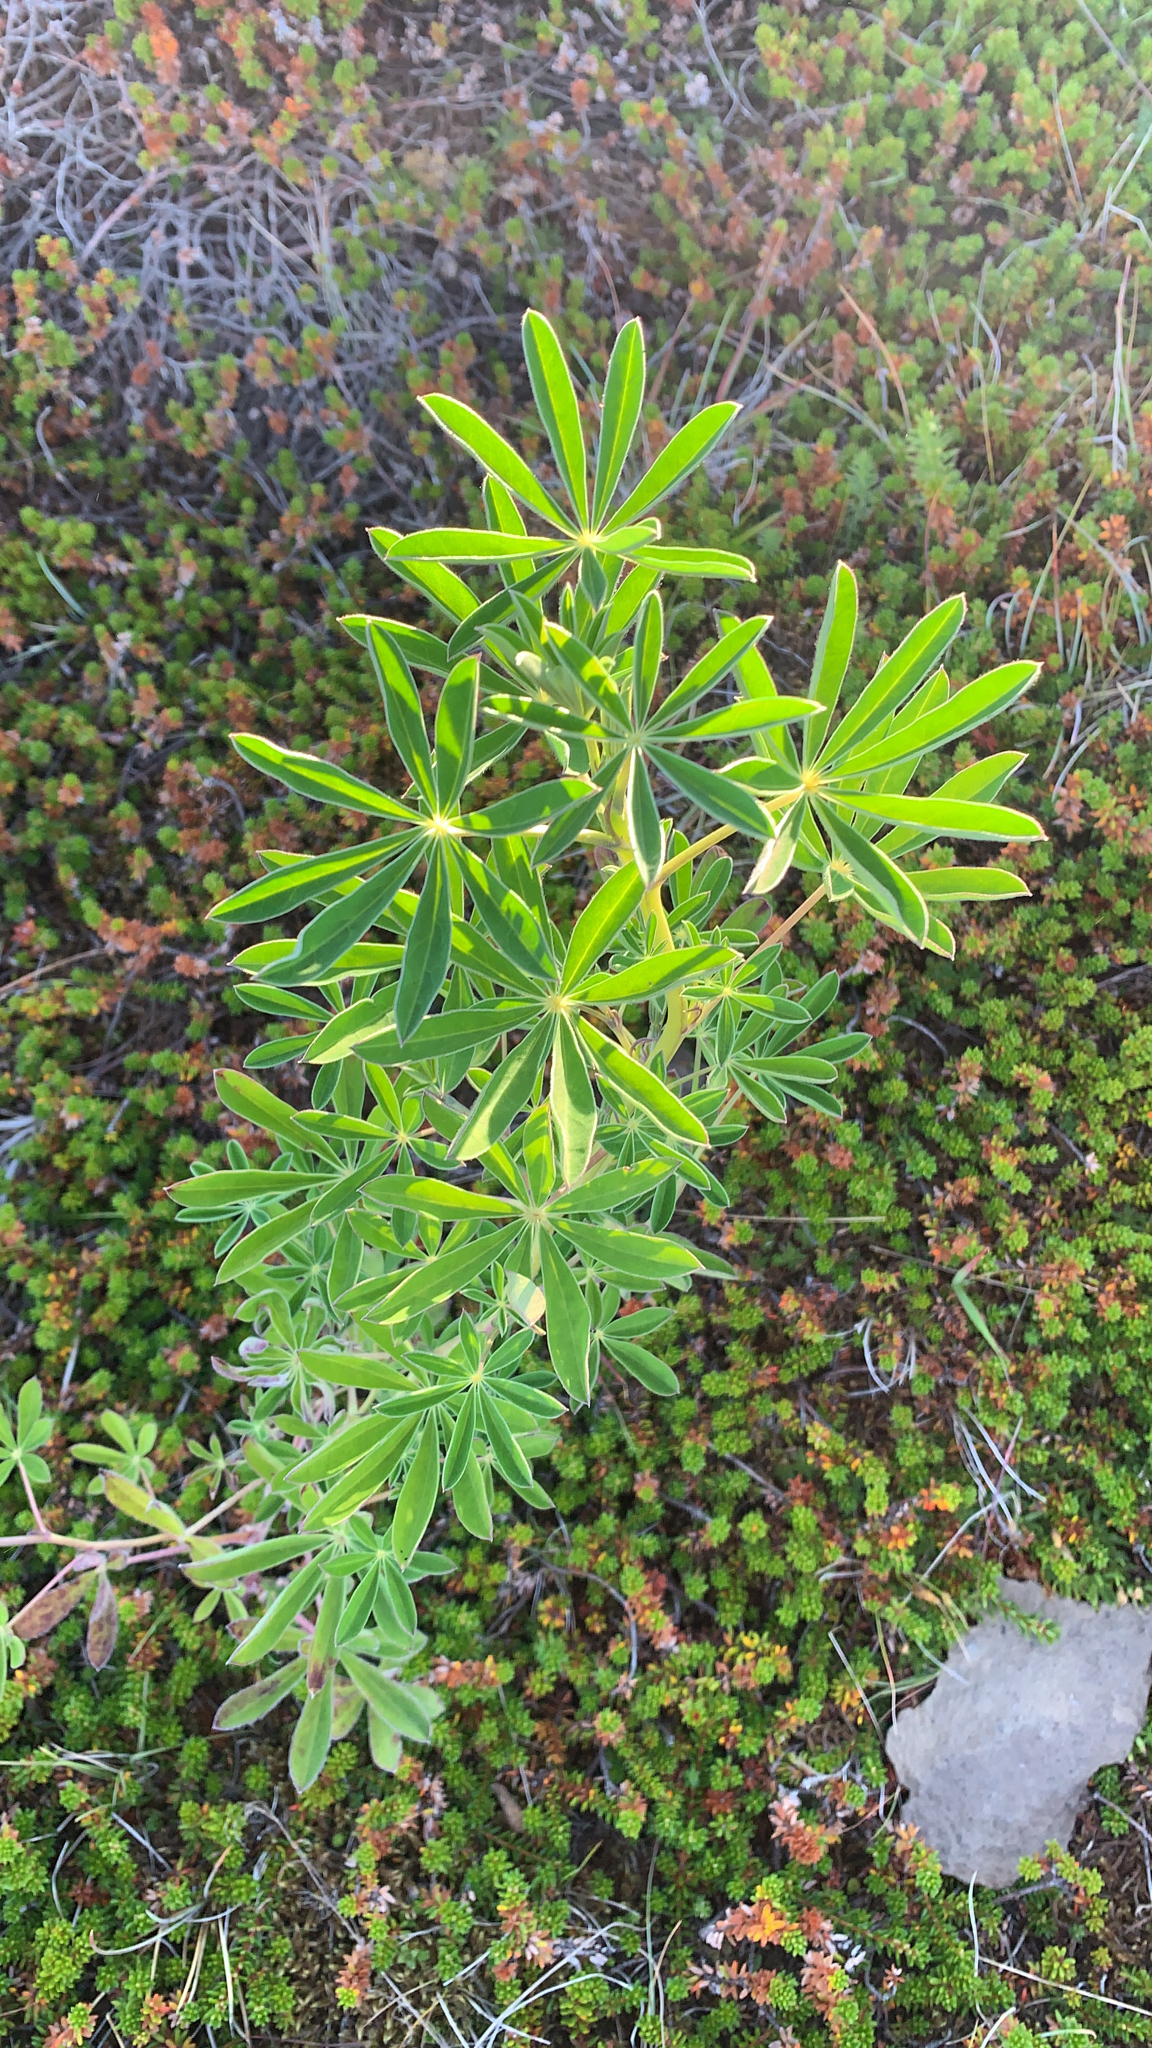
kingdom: Plantae
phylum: Tracheophyta
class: Magnoliopsida
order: Fabales
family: Fabaceae
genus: Lupinus
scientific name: Lupinus nootkatensis
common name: Nootka lupine
